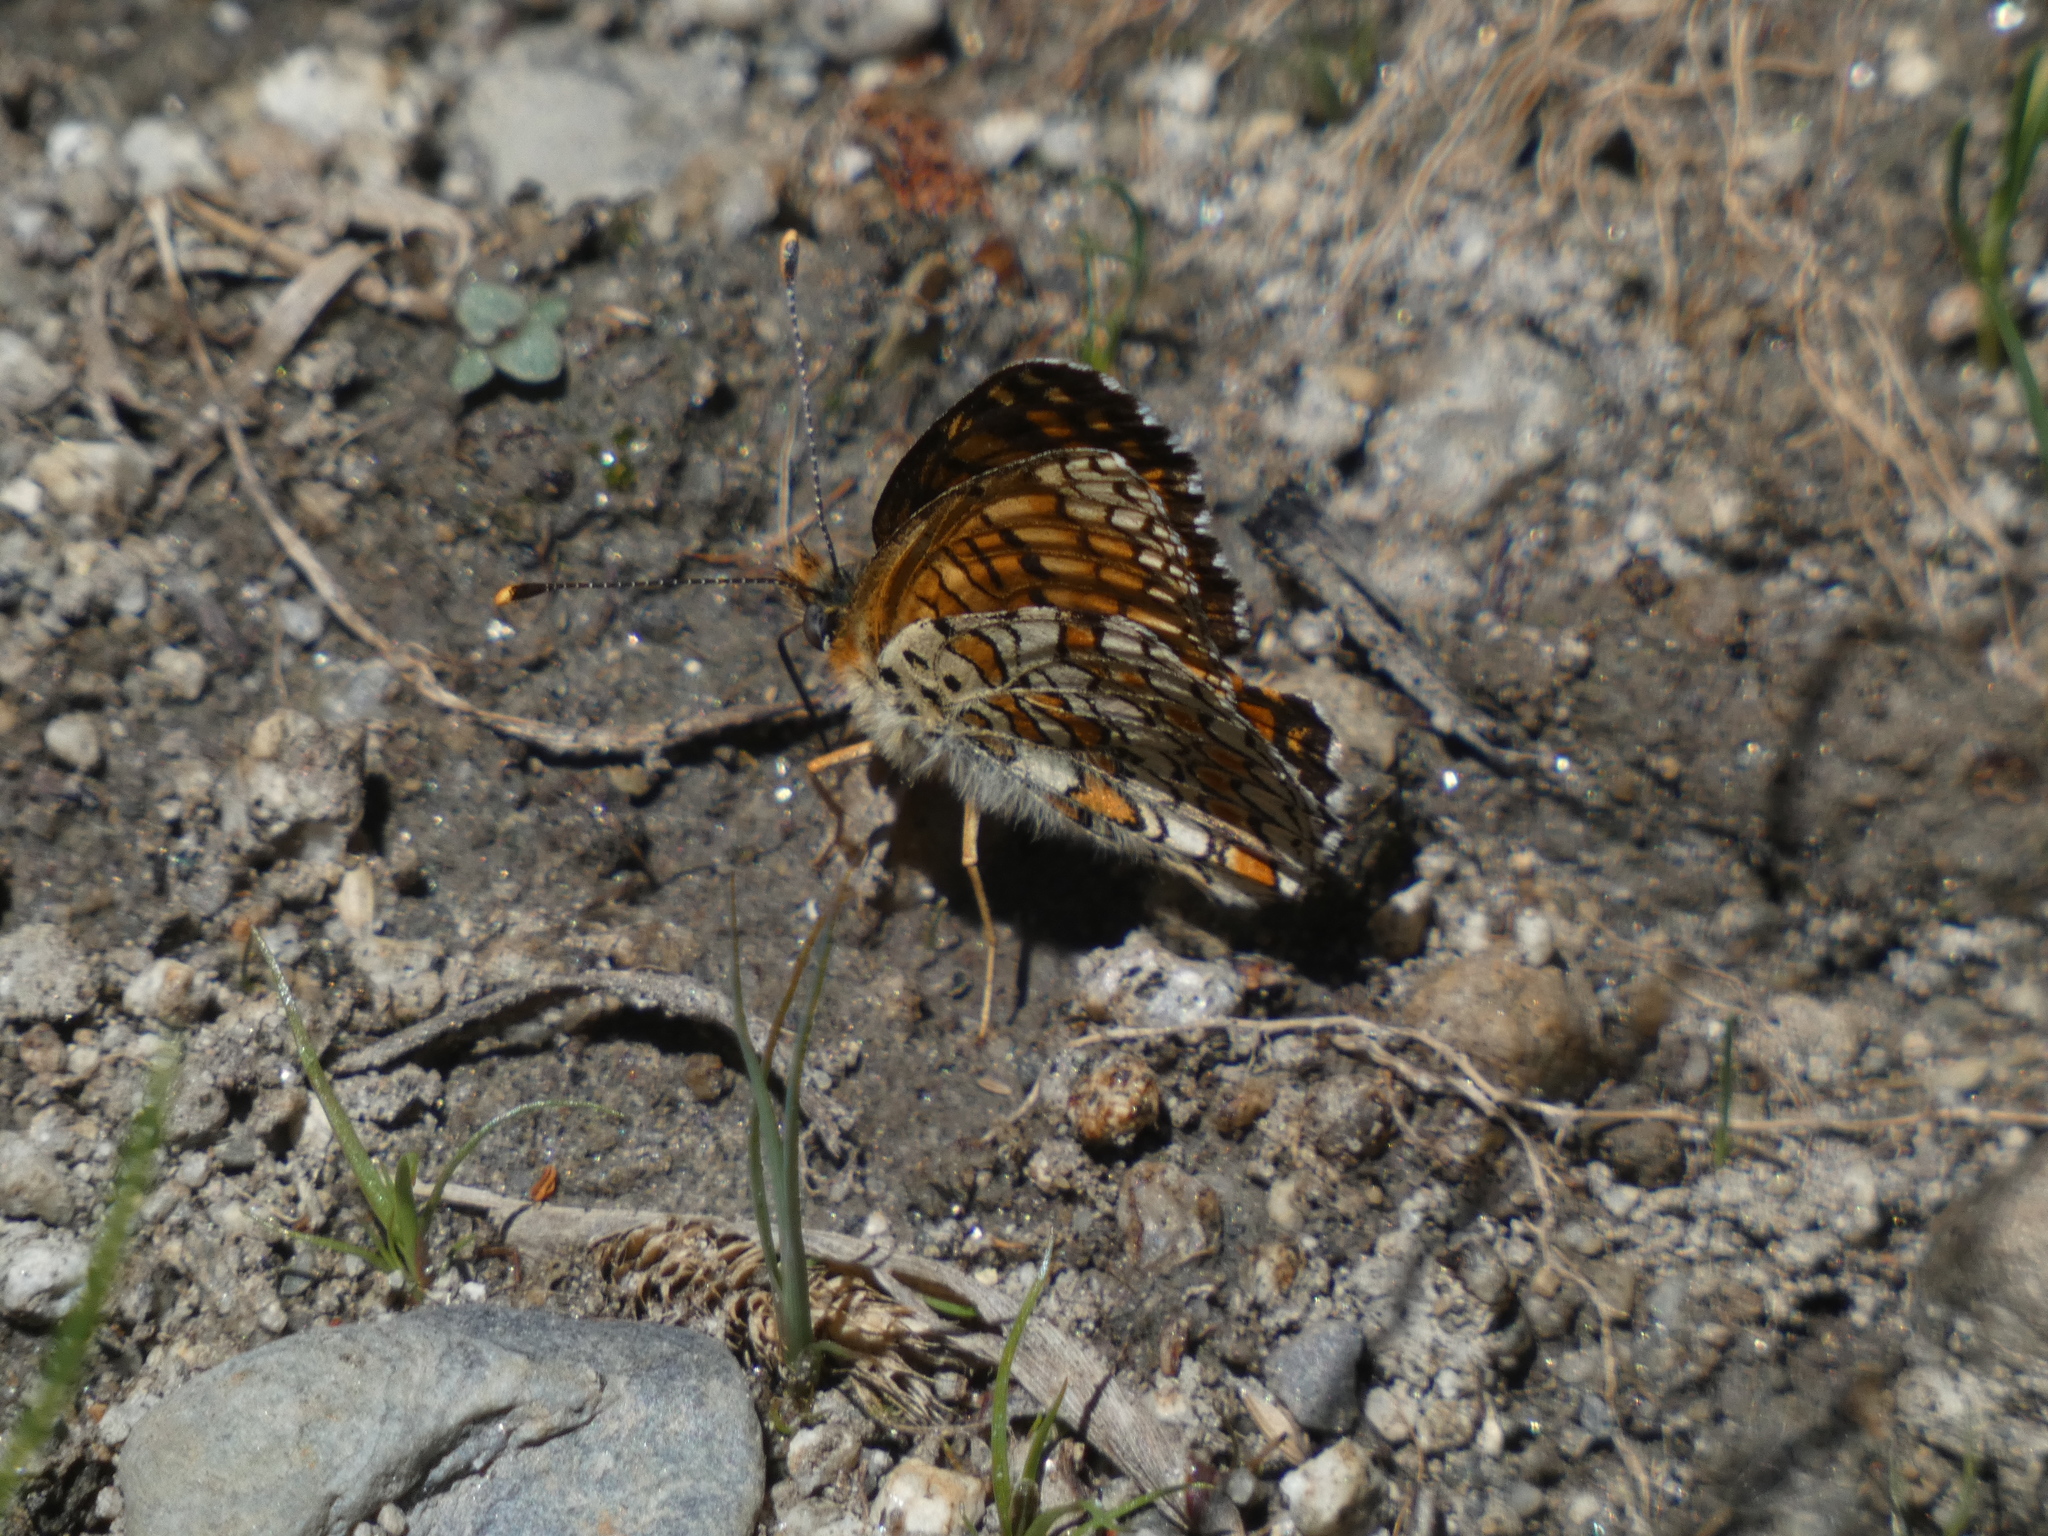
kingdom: Animalia
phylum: Arthropoda
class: Insecta
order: Lepidoptera
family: Nymphalidae
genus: Melitaea
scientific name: Melitaea phoebe
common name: Knapweed fritillary
